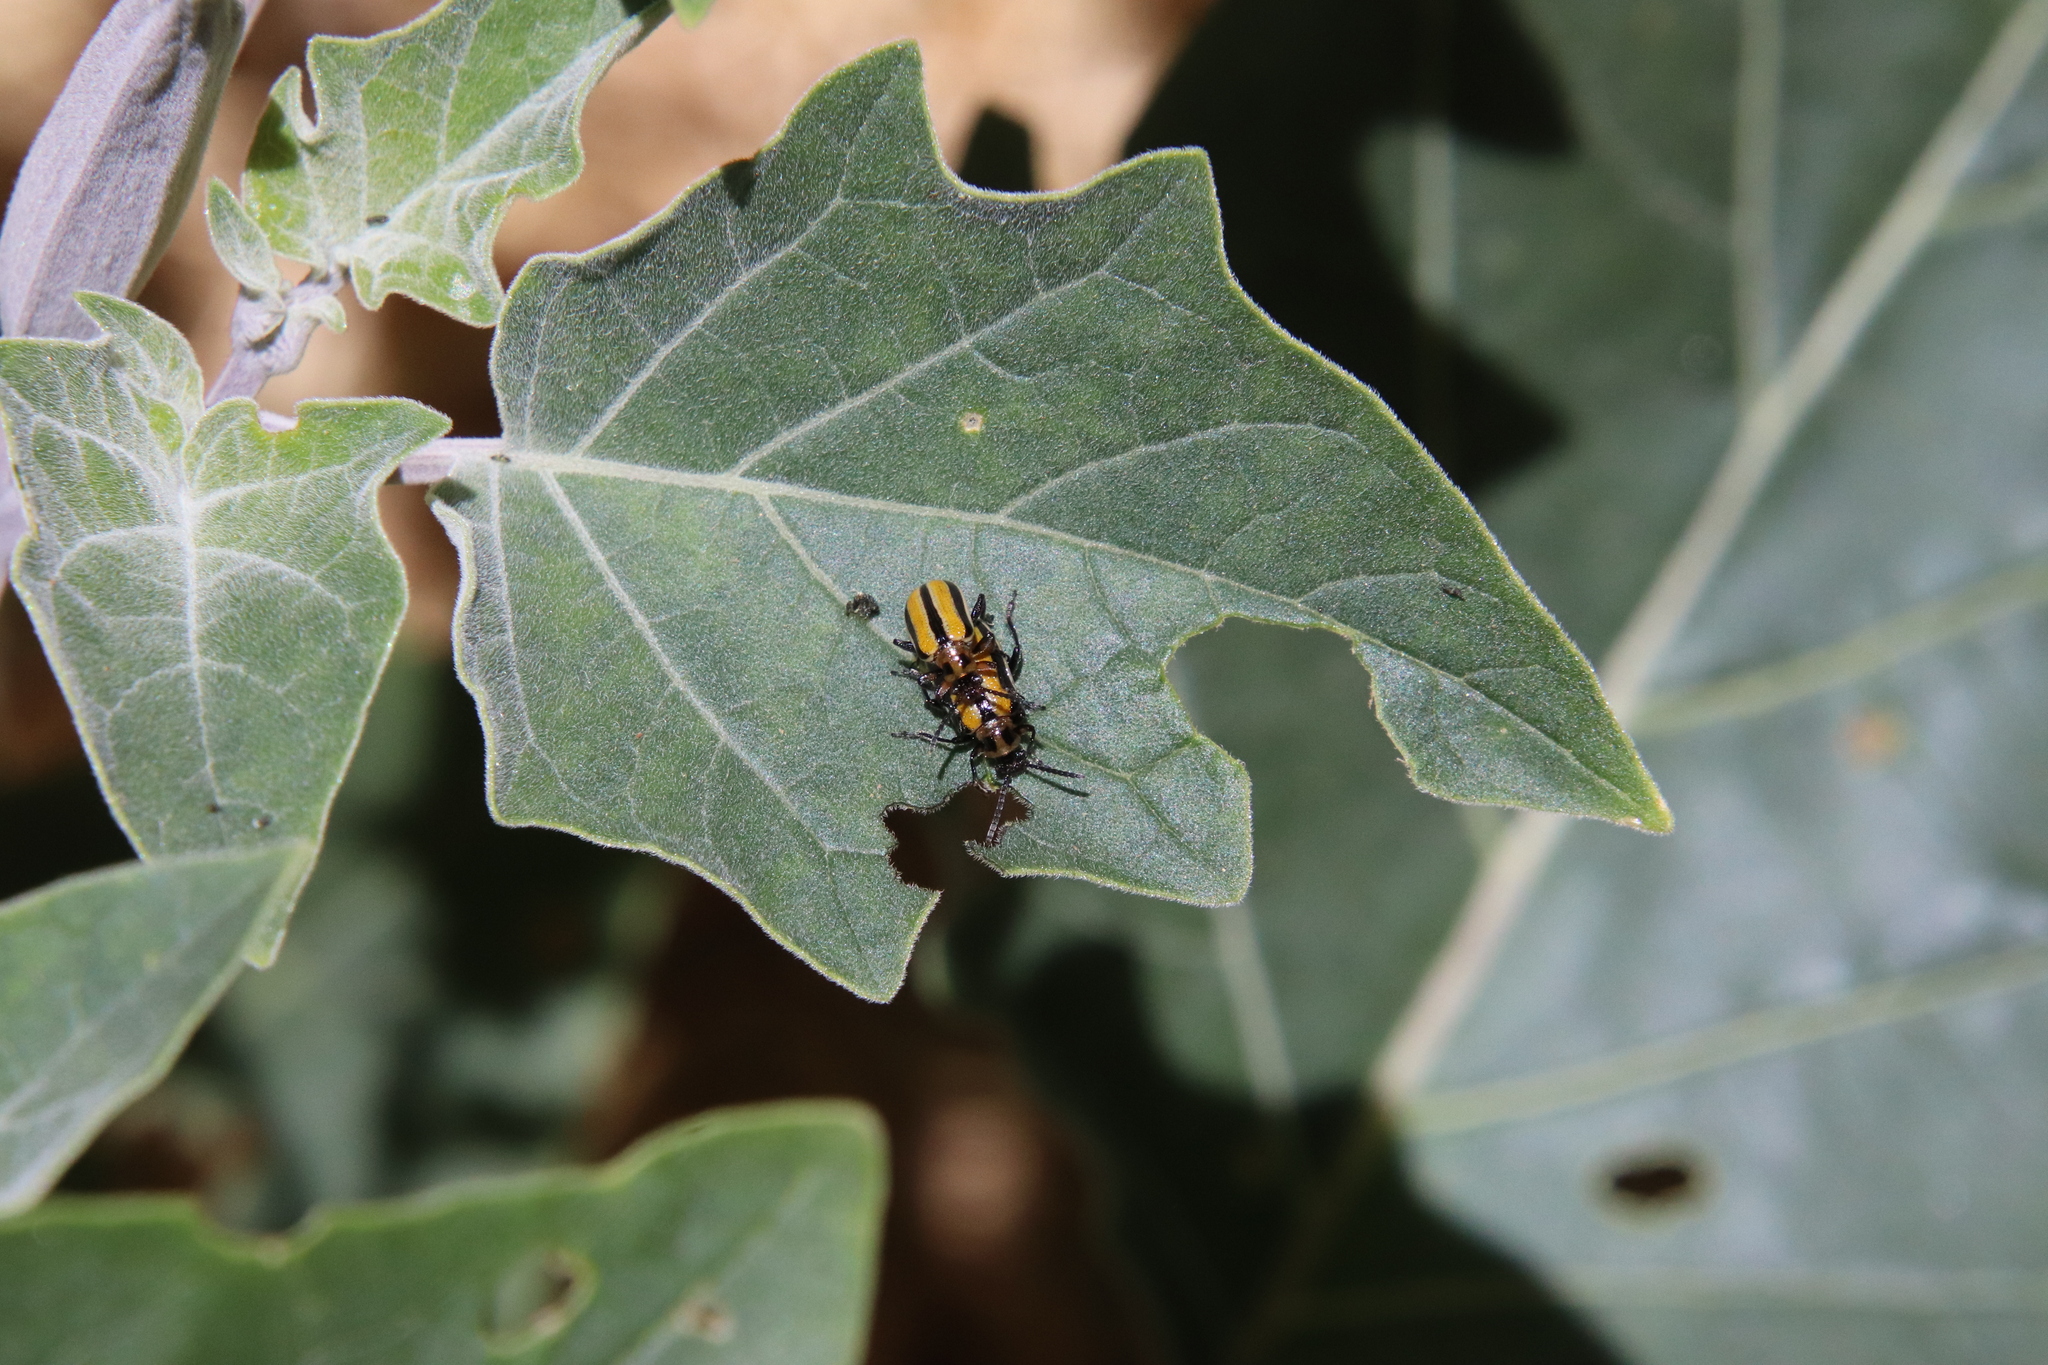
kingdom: Animalia
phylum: Arthropoda
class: Insecta
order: Coleoptera
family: Chrysomelidae
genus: Lema
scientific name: Lema daturaphila
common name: Leaf beetle
